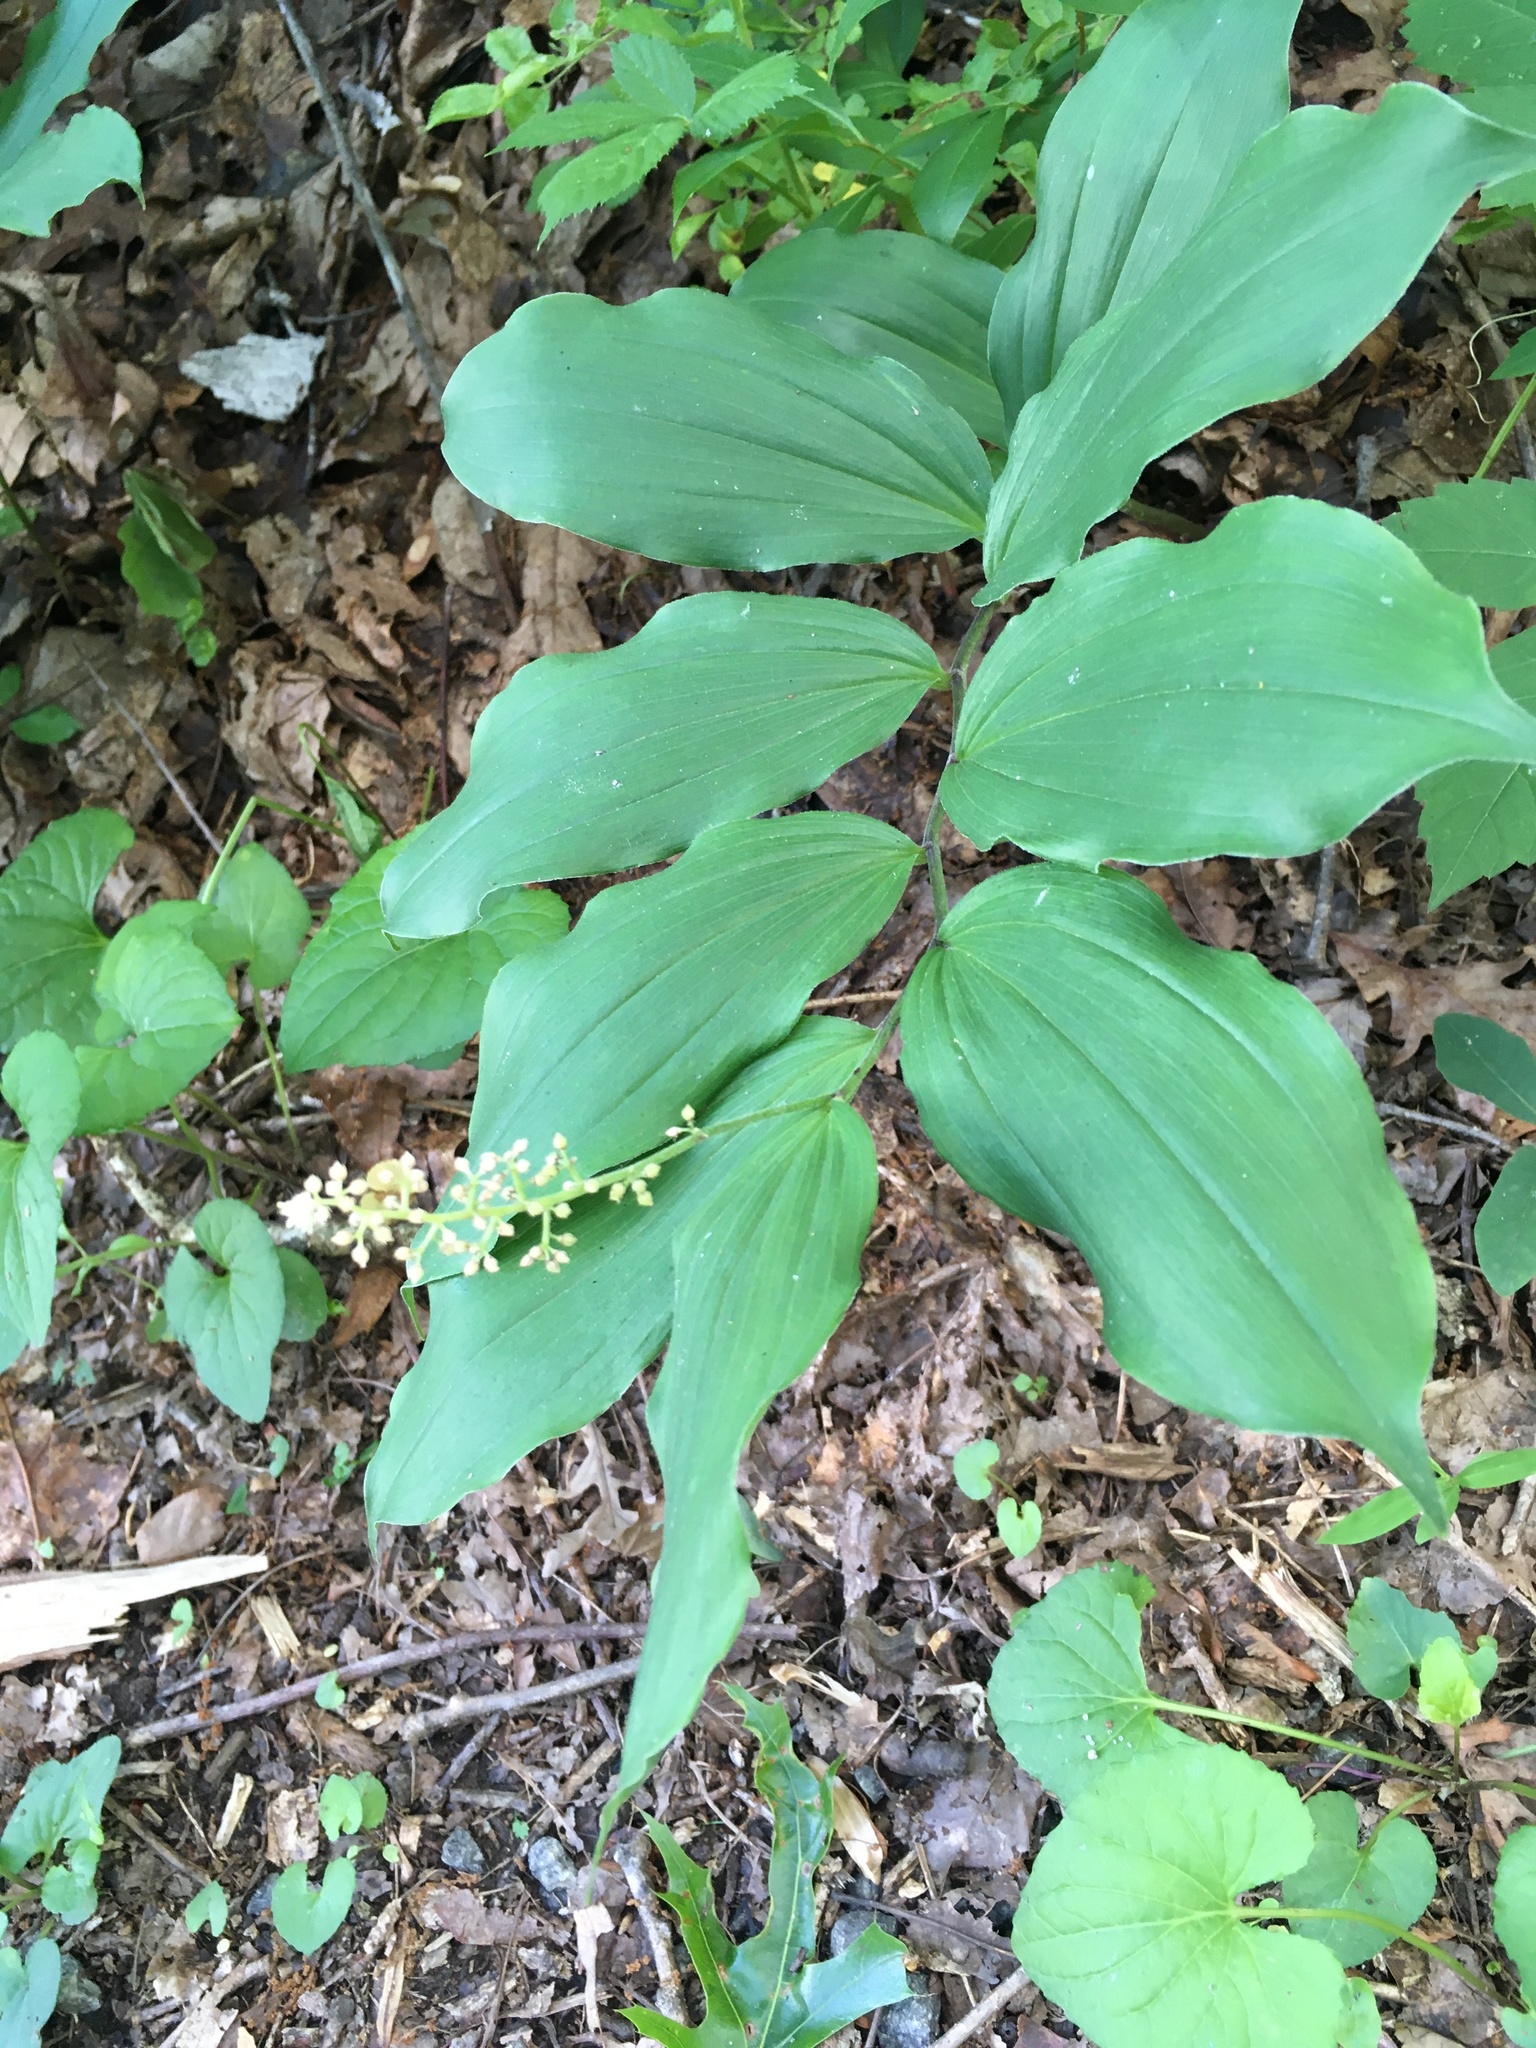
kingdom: Plantae
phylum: Tracheophyta
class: Liliopsida
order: Asparagales
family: Asparagaceae
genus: Maianthemum
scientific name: Maianthemum racemosum
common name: False spikenard
